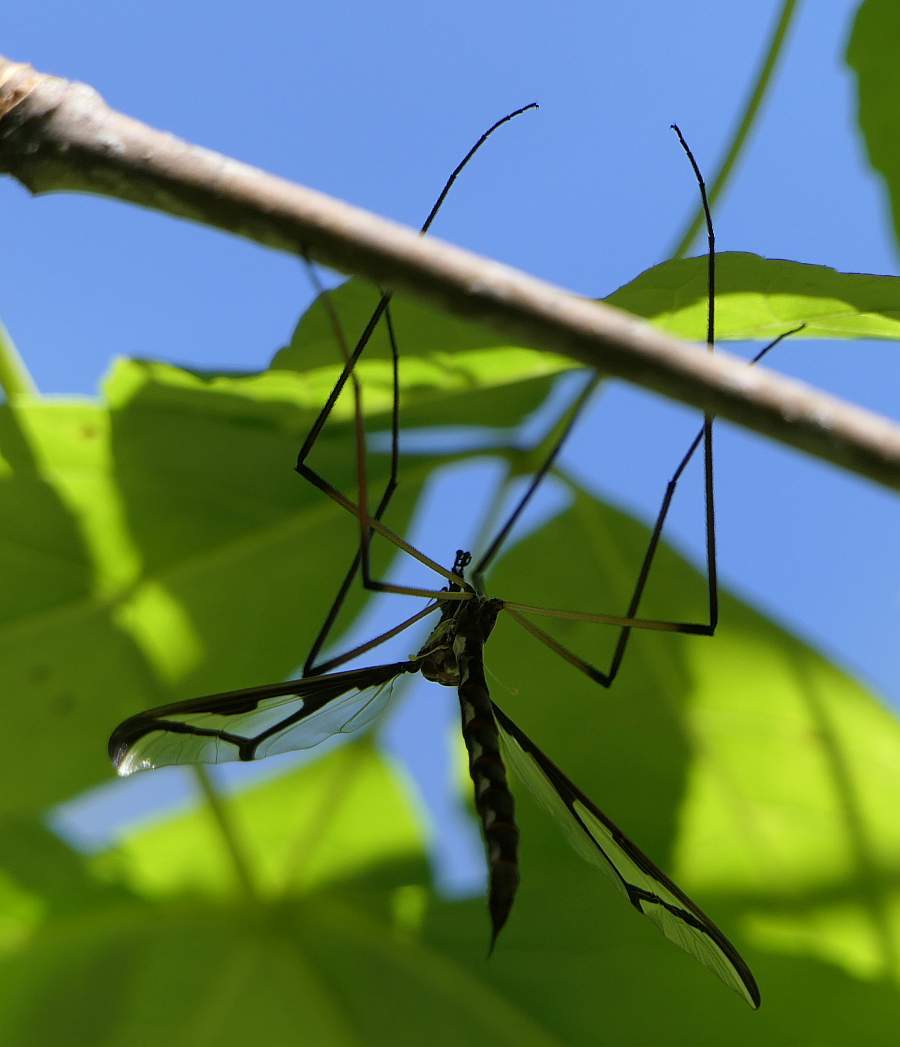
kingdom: Animalia
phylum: Arthropoda
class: Insecta
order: Diptera
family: Pediciidae
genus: Pedicia
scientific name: Pedicia albivitta
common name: Giant eastern crane fly
